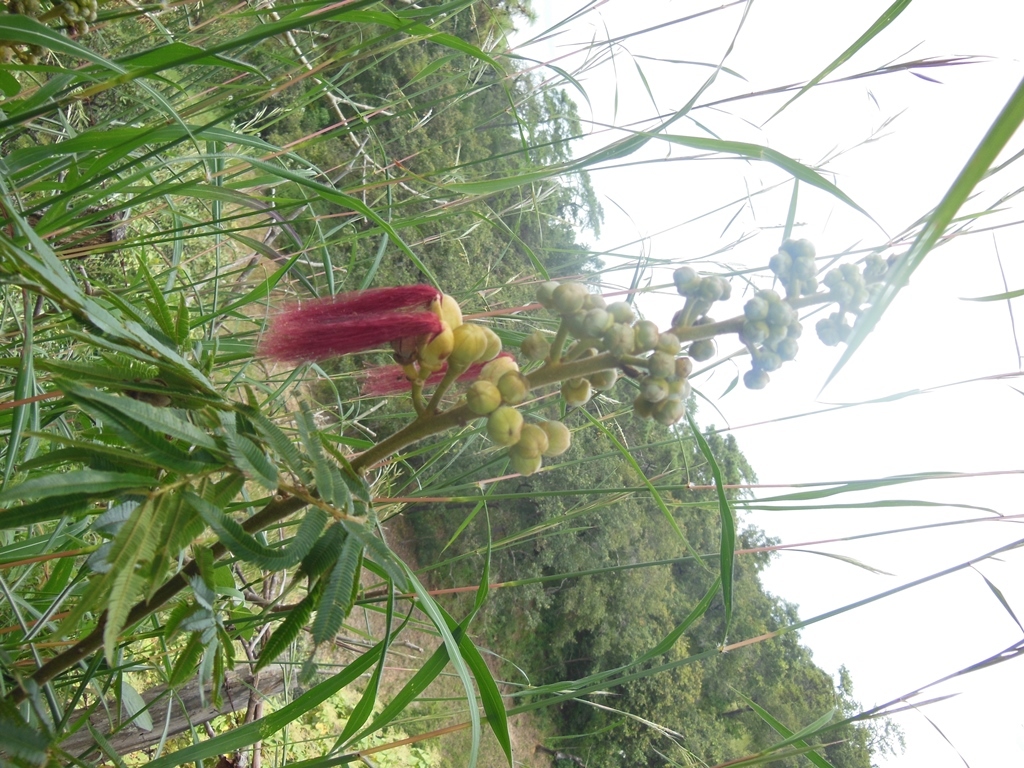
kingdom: Plantae
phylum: Tracheophyta
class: Magnoliopsida
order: Fabales
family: Fabaceae
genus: Calliandra
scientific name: Calliandra houstoniana
